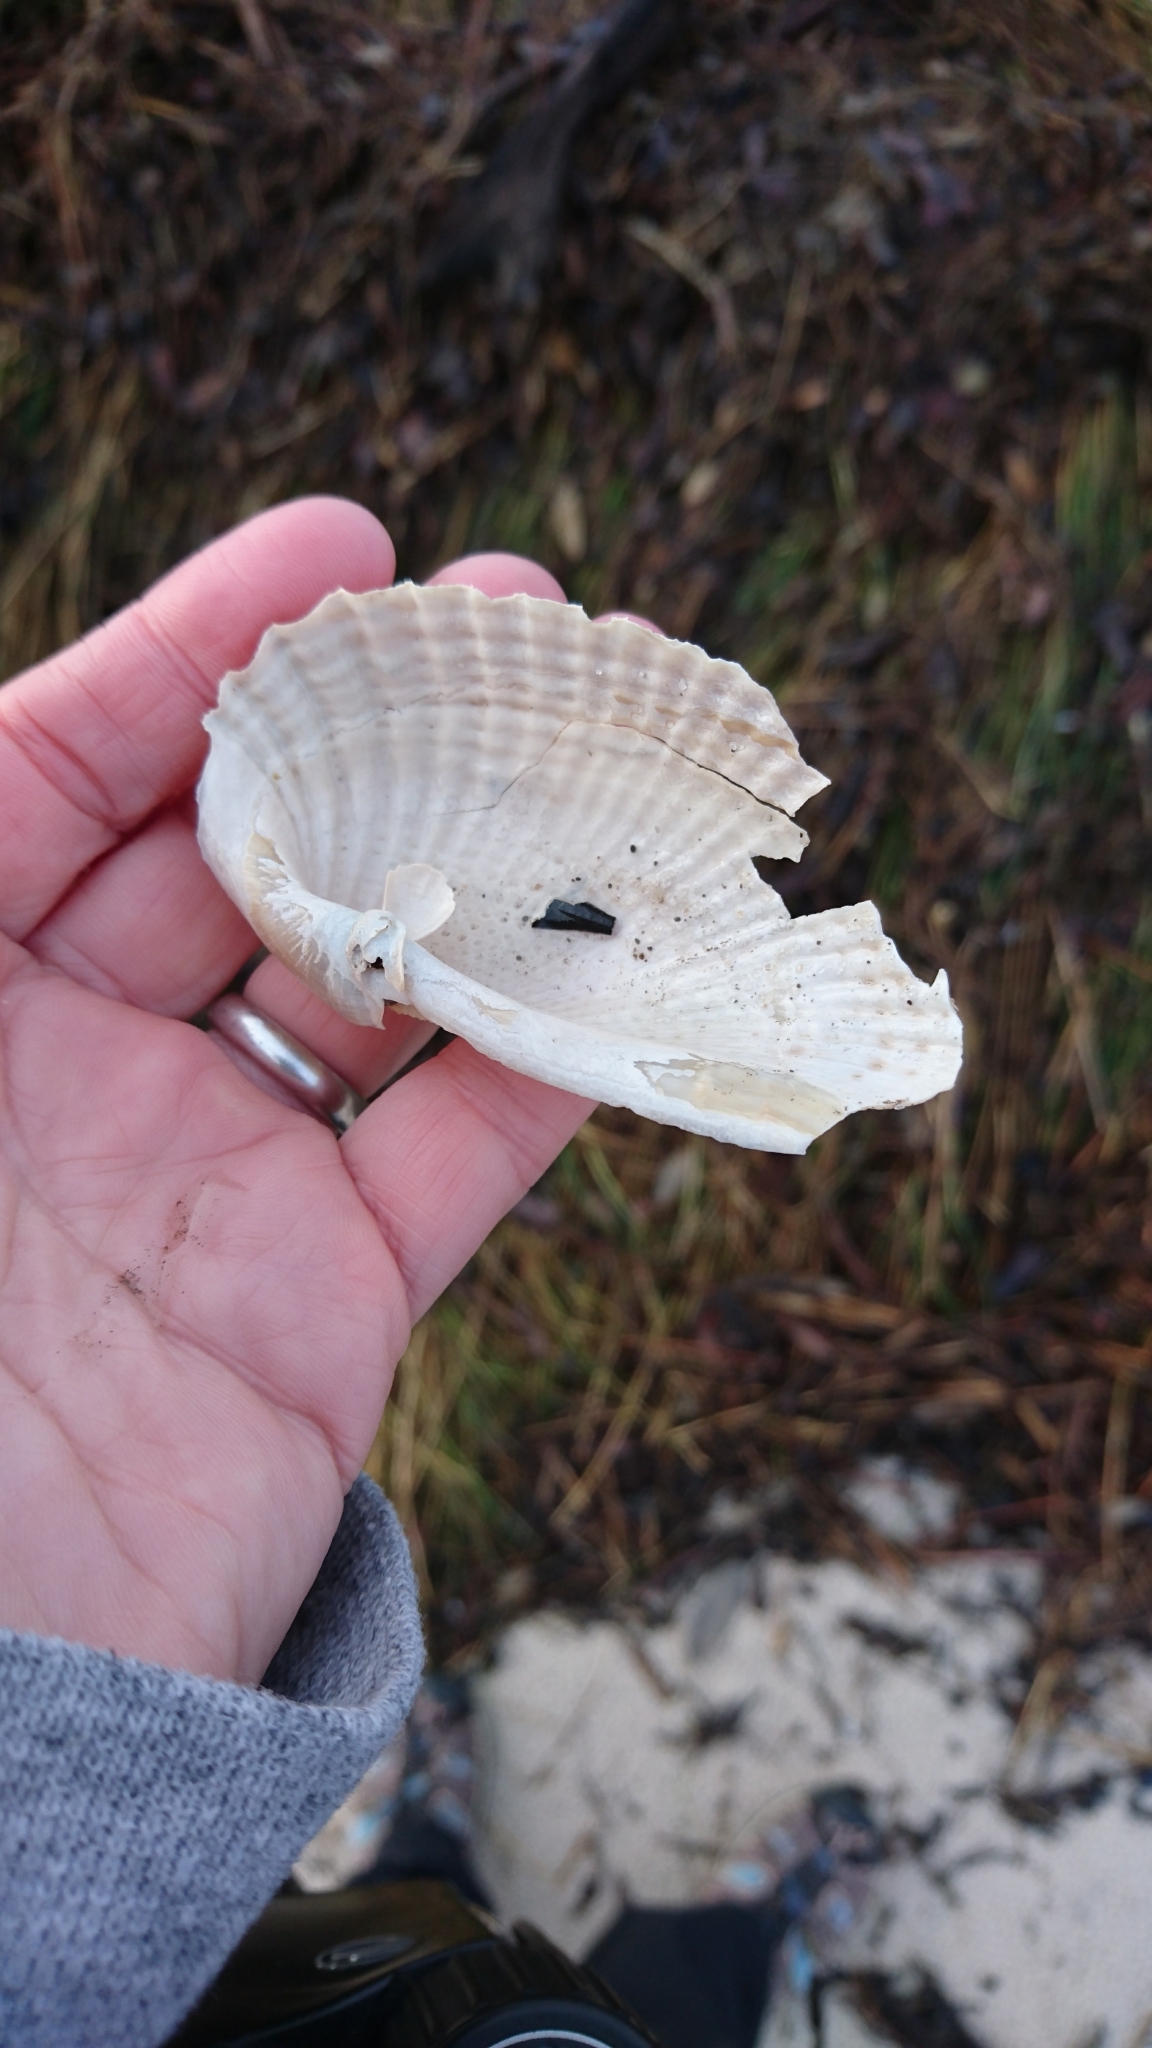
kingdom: Animalia
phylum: Mollusca
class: Bivalvia
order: Myida
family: Pholadidae
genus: Cyrtopleura
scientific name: Cyrtopleura costata
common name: Angel wing
